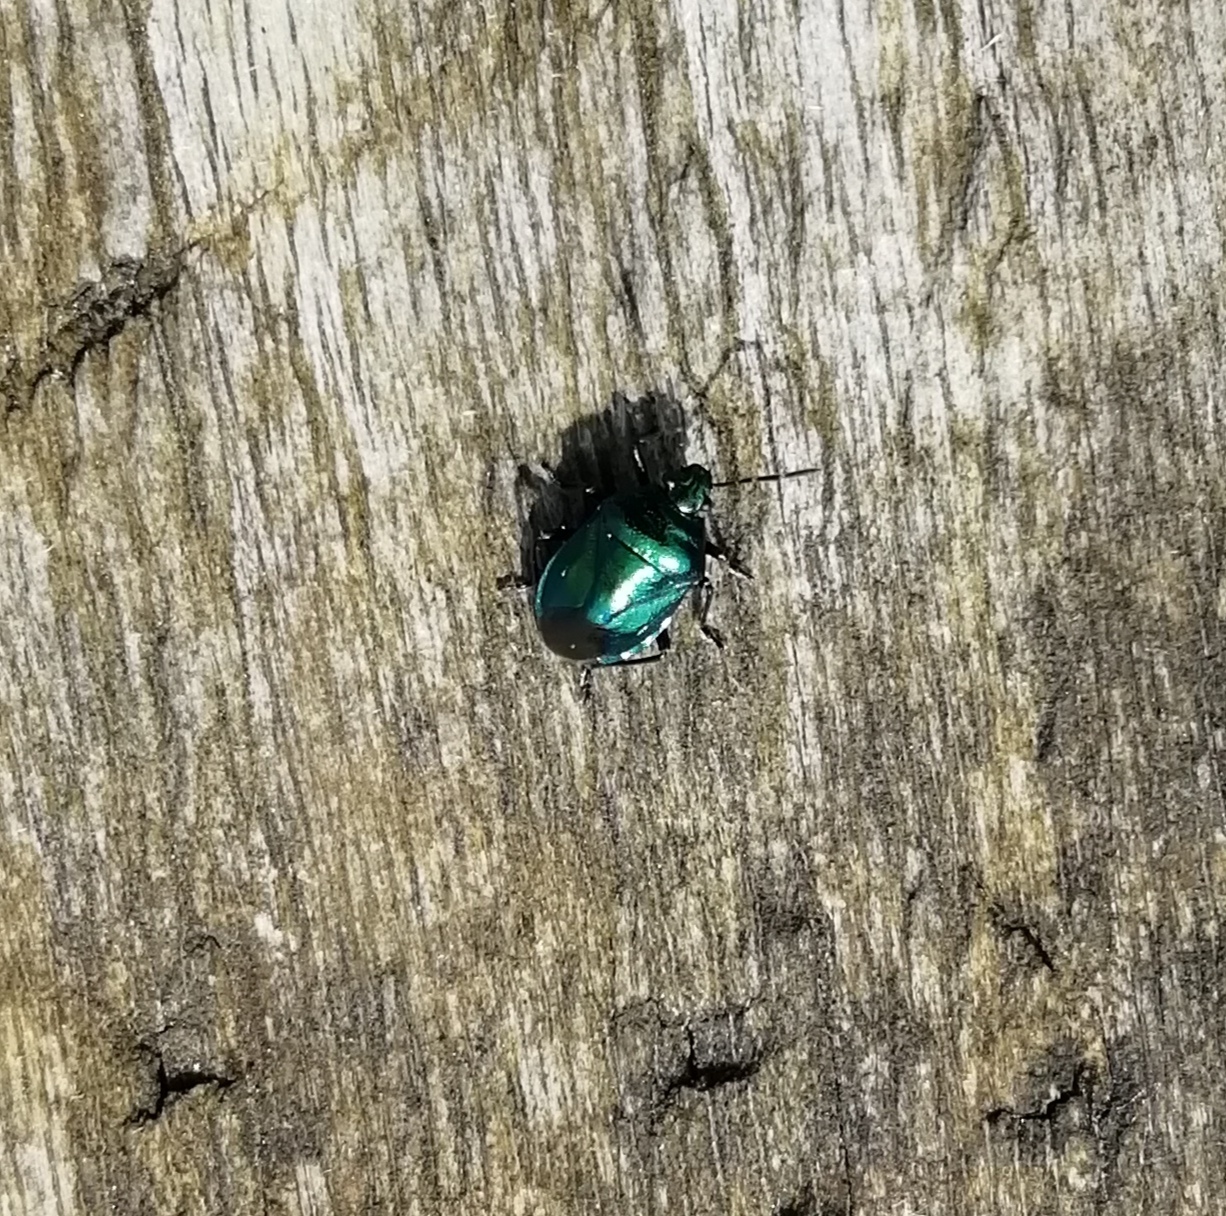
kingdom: Animalia
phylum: Arthropoda
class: Insecta
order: Hemiptera
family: Pentatomidae
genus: Zicrona
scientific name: Zicrona caerulea
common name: Blue shieldbug
